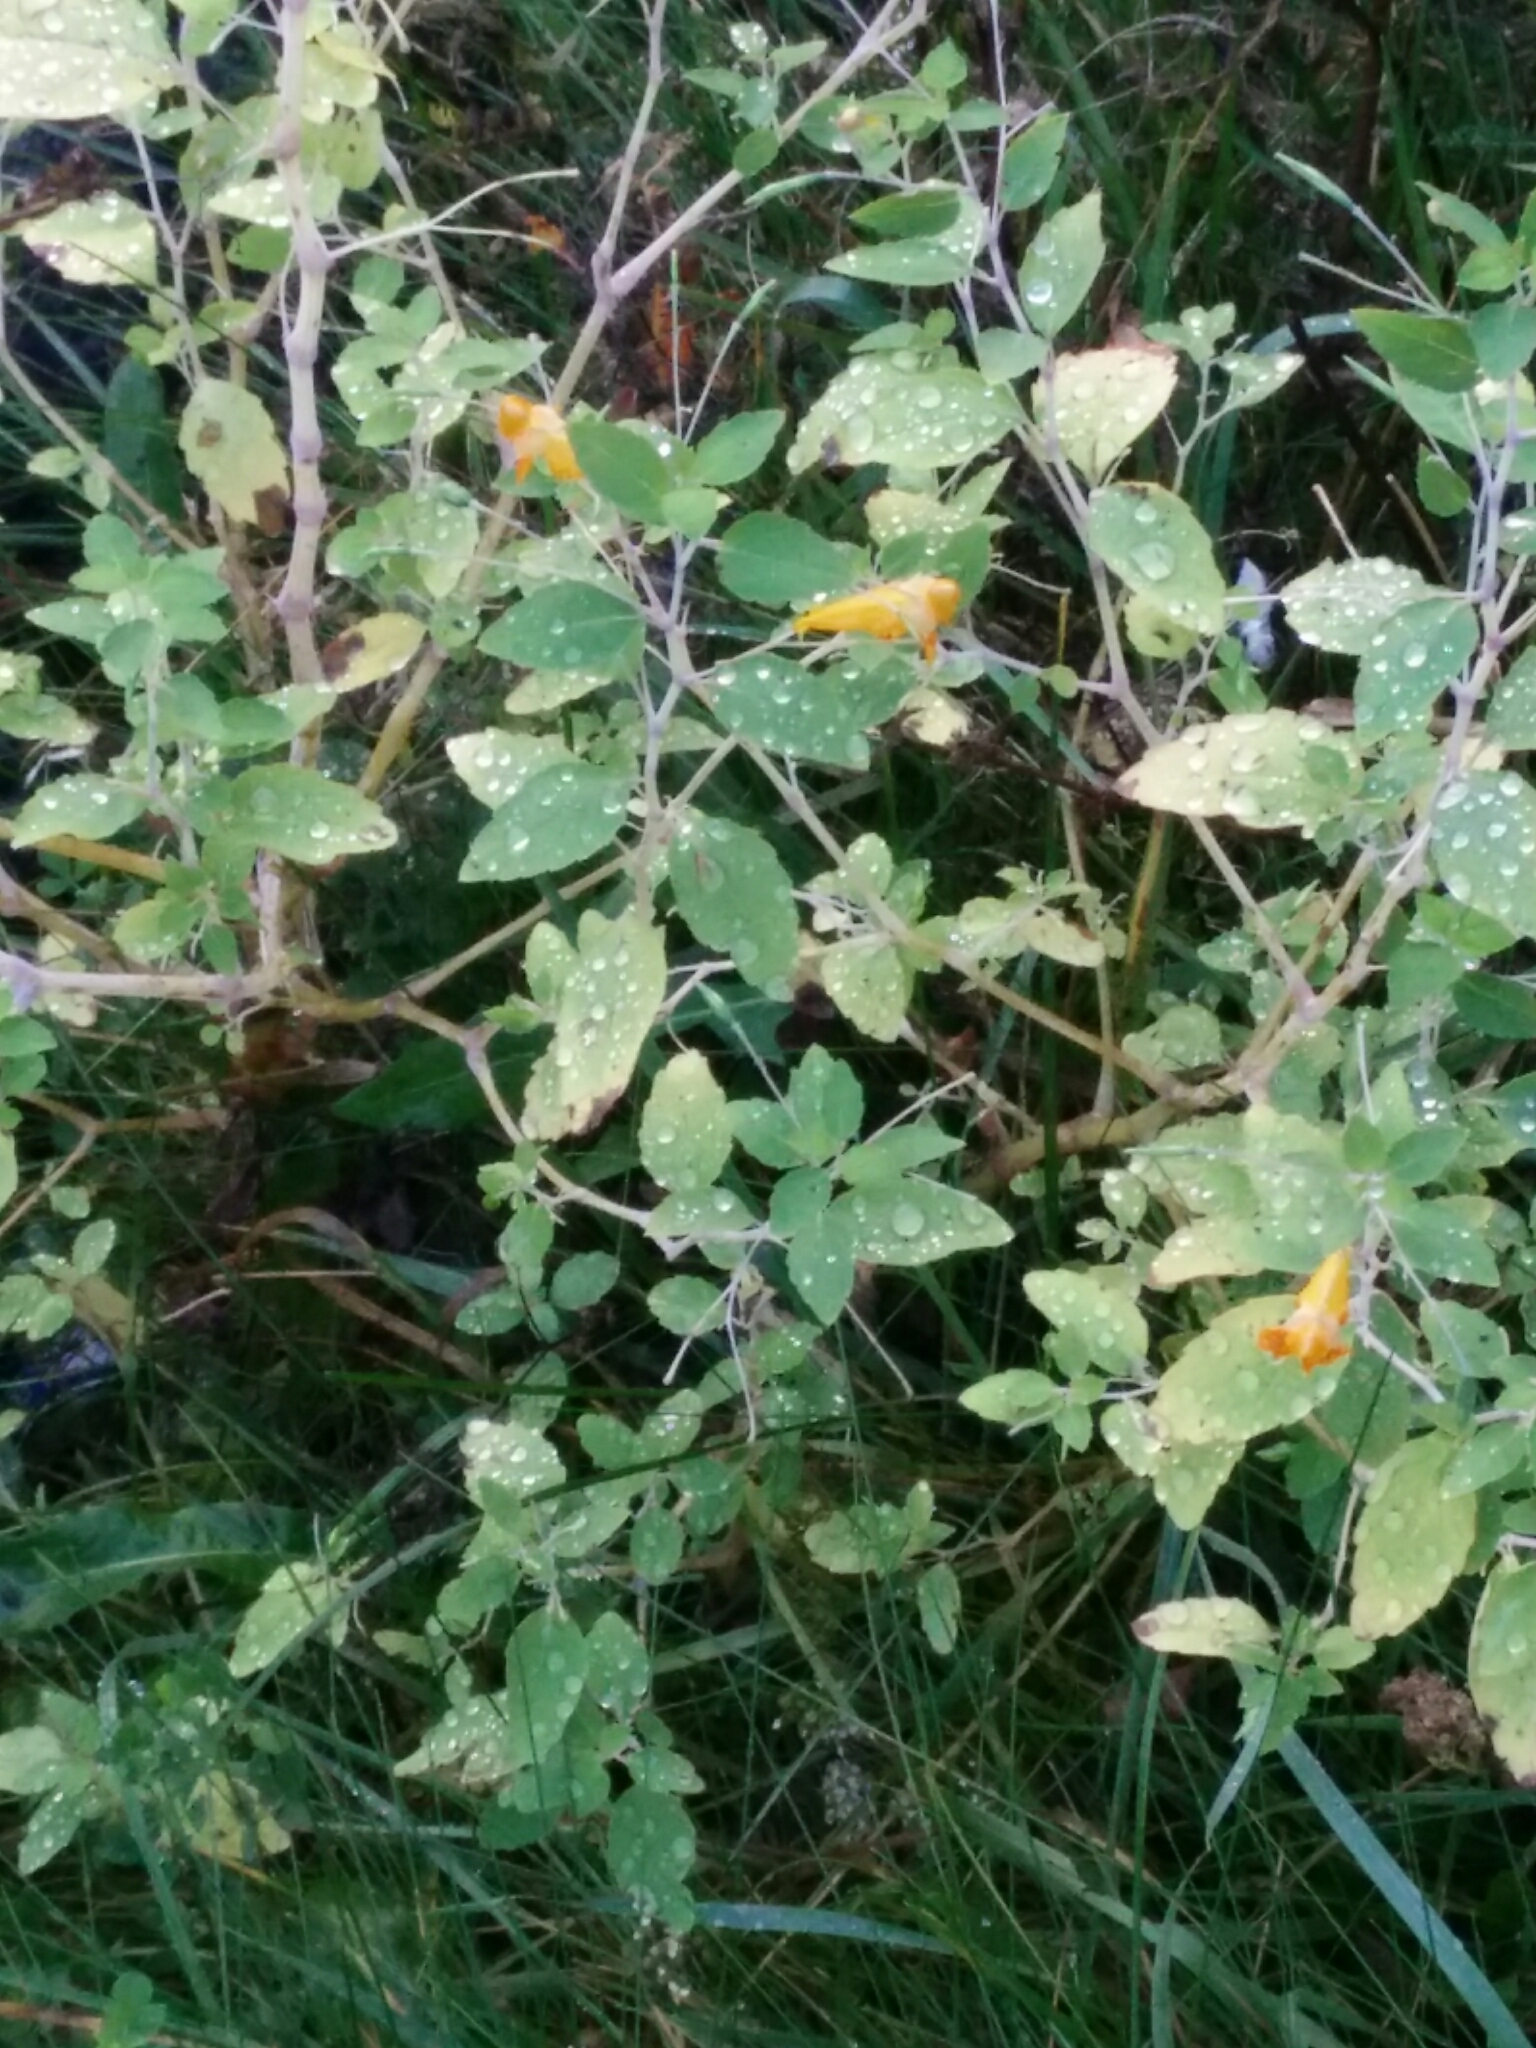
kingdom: Plantae
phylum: Tracheophyta
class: Magnoliopsida
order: Ericales
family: Balsaminaceae
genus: Impatiens
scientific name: Impatiens capensis
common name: Orange balsam
